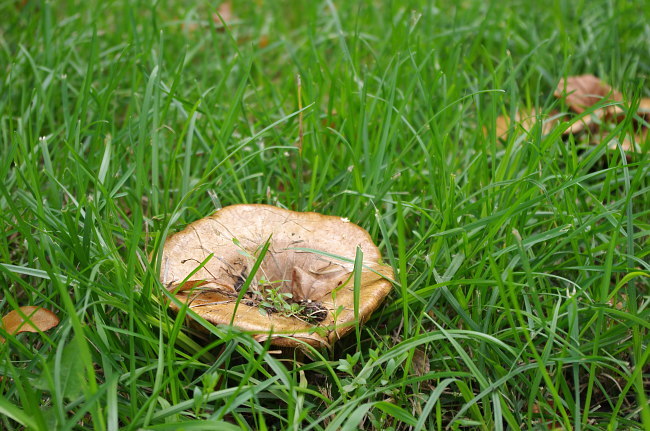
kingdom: Fungi
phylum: Basidiomycota
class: Agaricomycetes
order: Boletales
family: Paxillaceae
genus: Paxillus
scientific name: Paxillus involutus
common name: Brown roll rim
